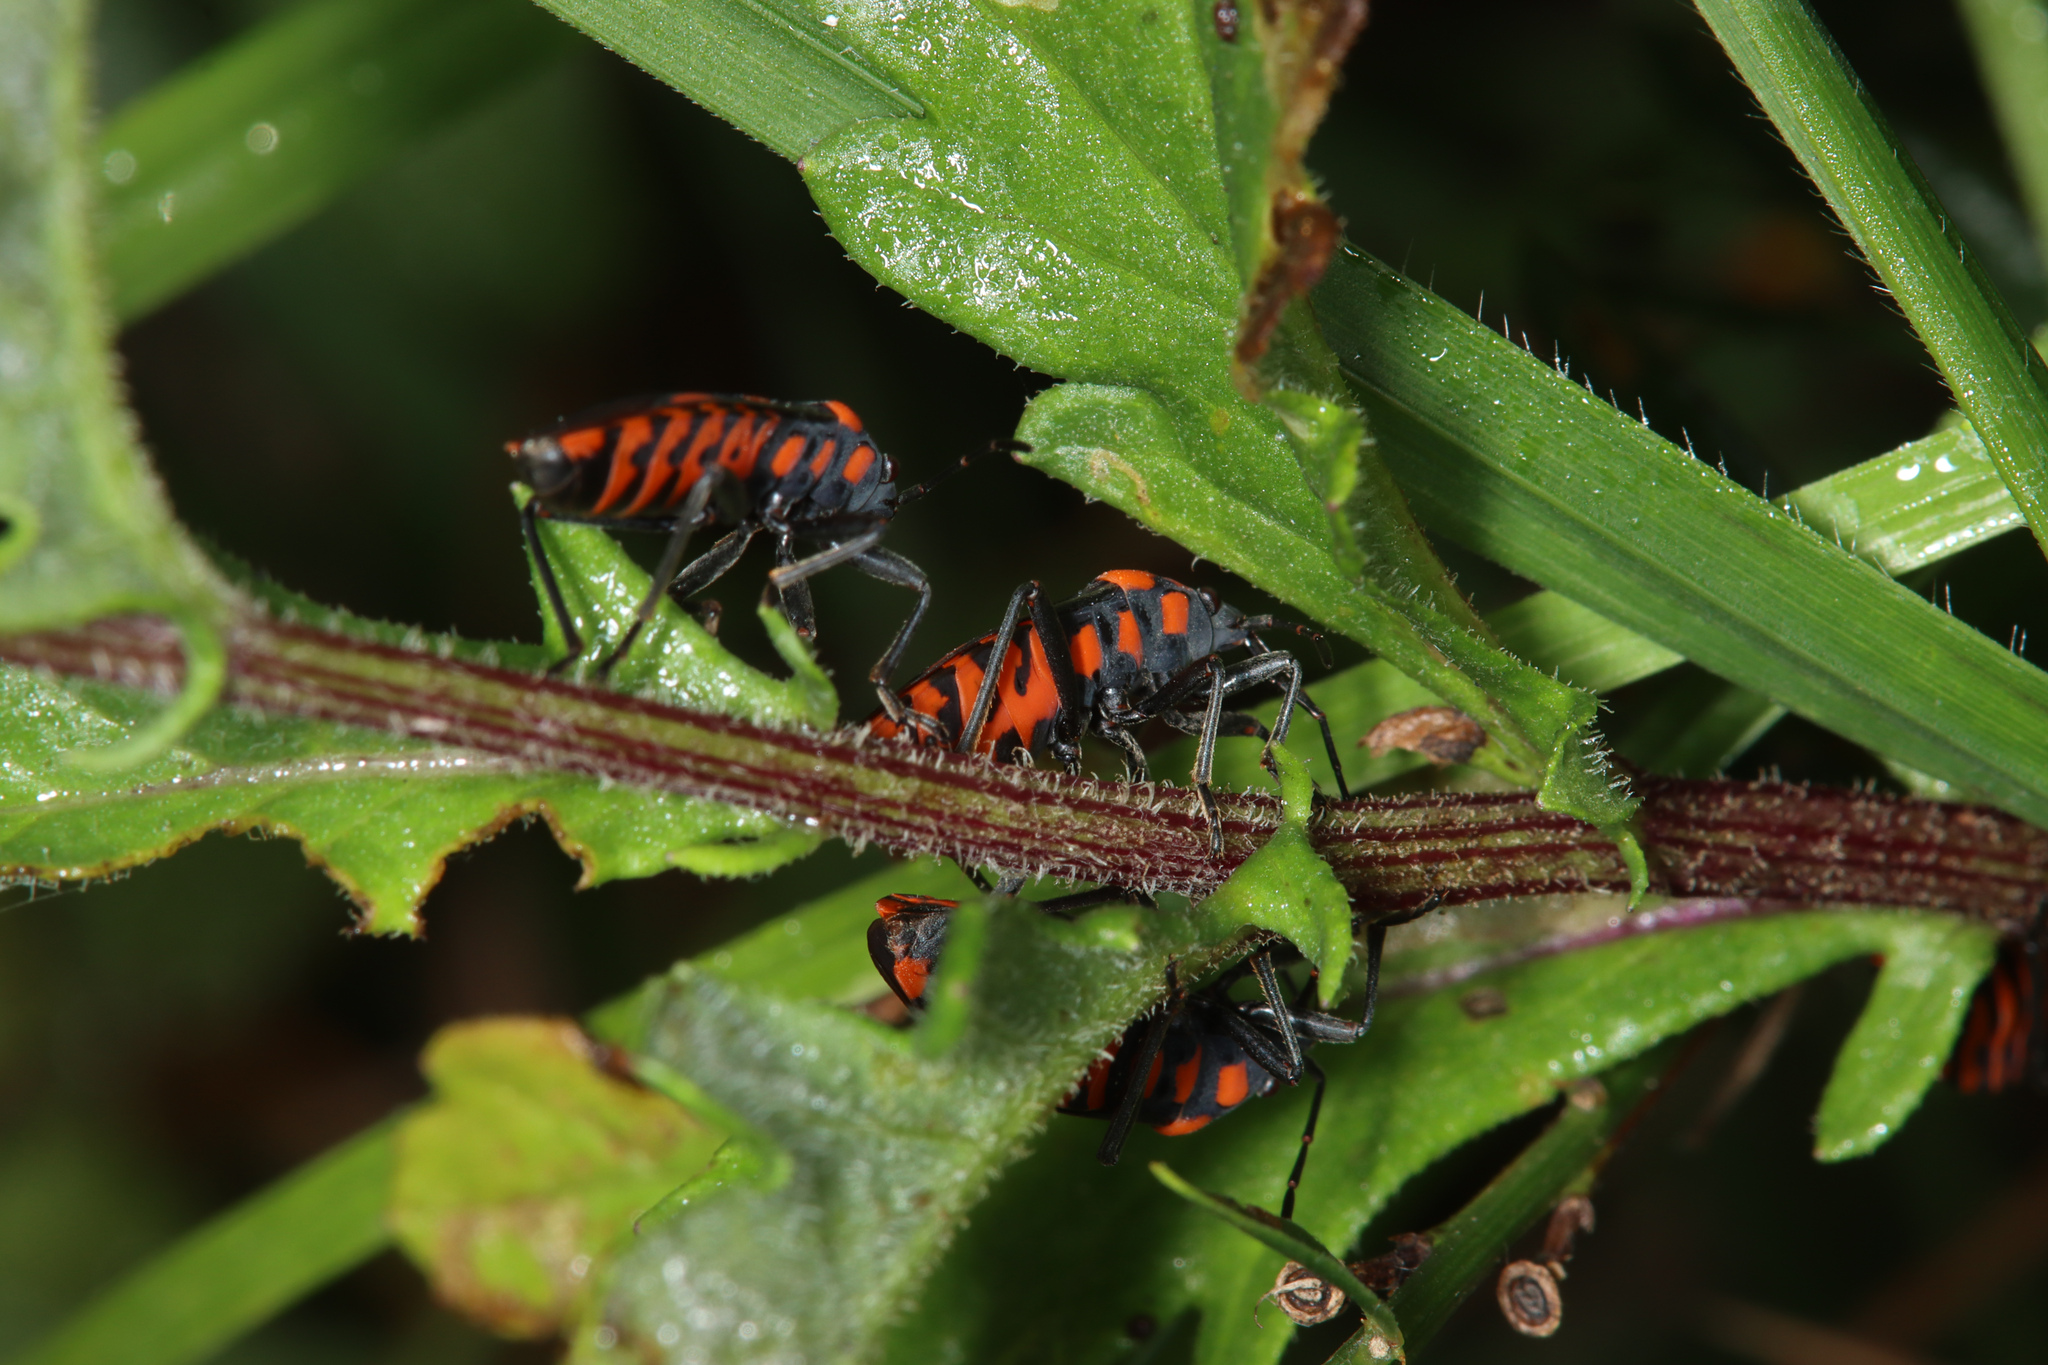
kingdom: Animalia
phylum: Arthropoda
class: Insecta
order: Hemiptera
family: Lygaeidae
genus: Spilostethus
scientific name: Spilostethus saxatilis
